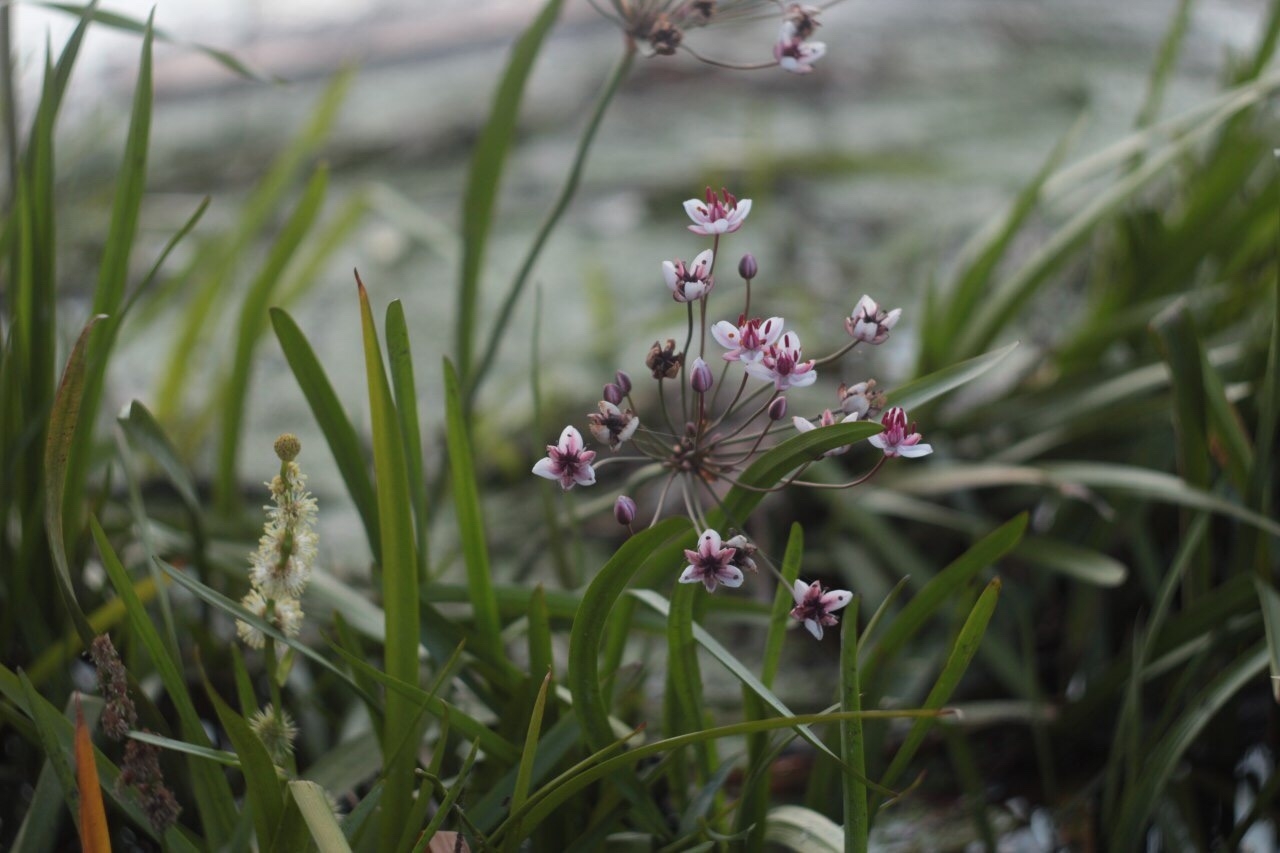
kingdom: Plantae
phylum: Tracheophyta
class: Liliopsida
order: Alismatales
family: Butomaceae
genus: Butomus
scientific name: Butomus umbellatus
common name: Flowering-rush
